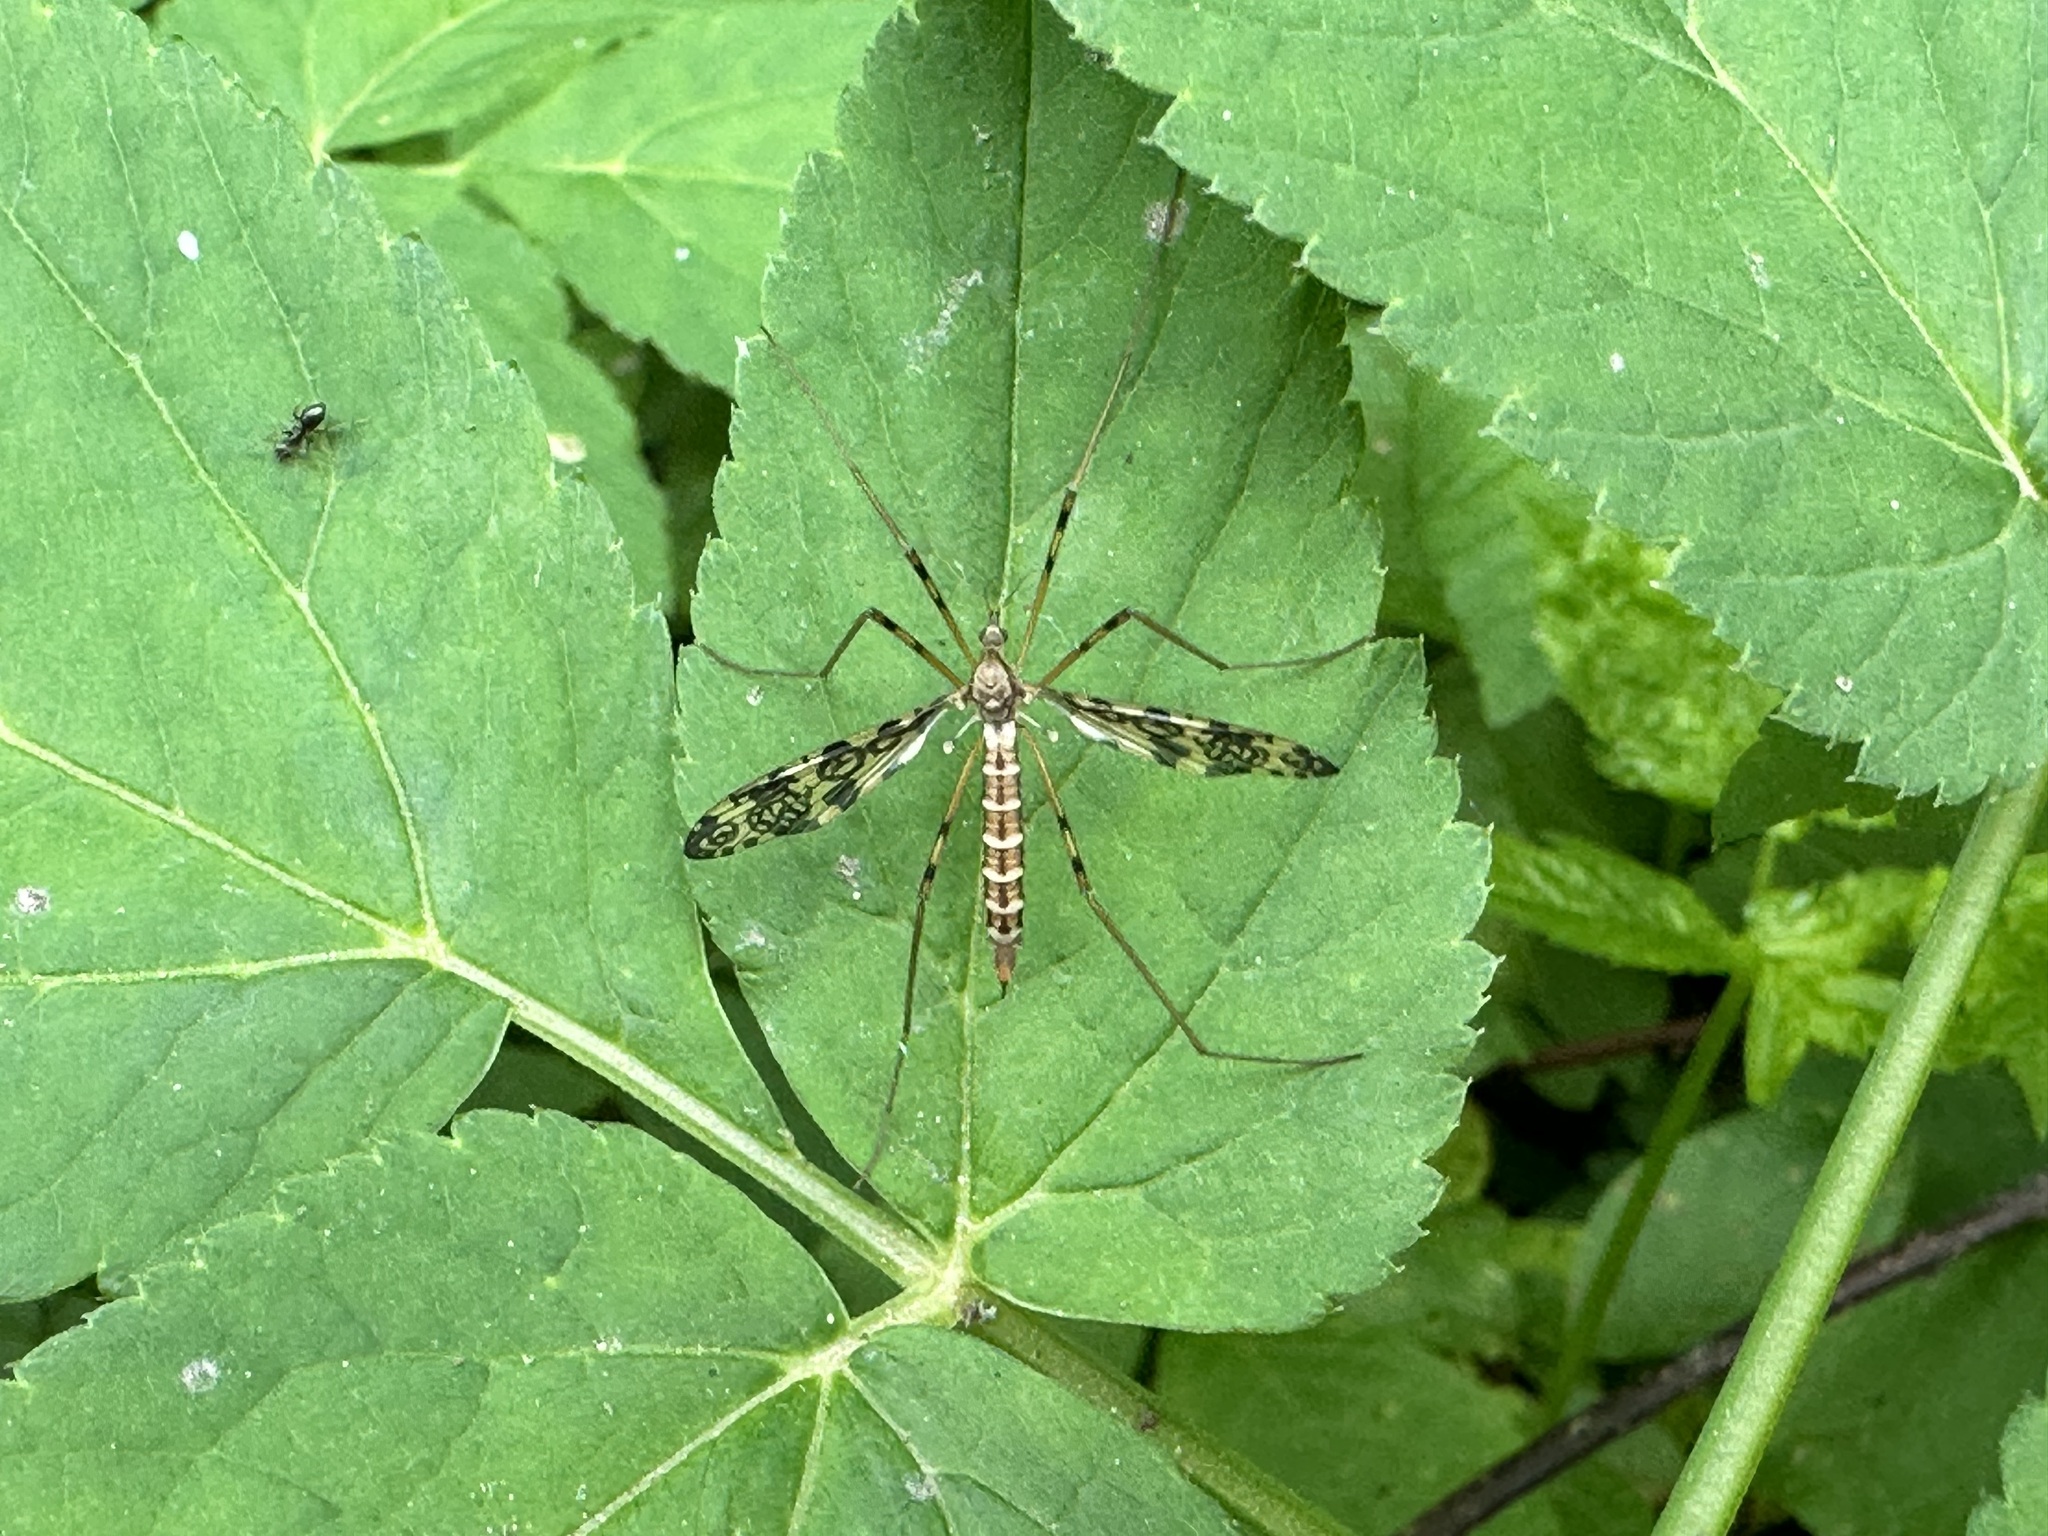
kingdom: Animalia
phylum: Arthropoda
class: Insecta
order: Diptera
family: Limoniidae
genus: Epiphragma
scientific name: Epiphragma ocellare
